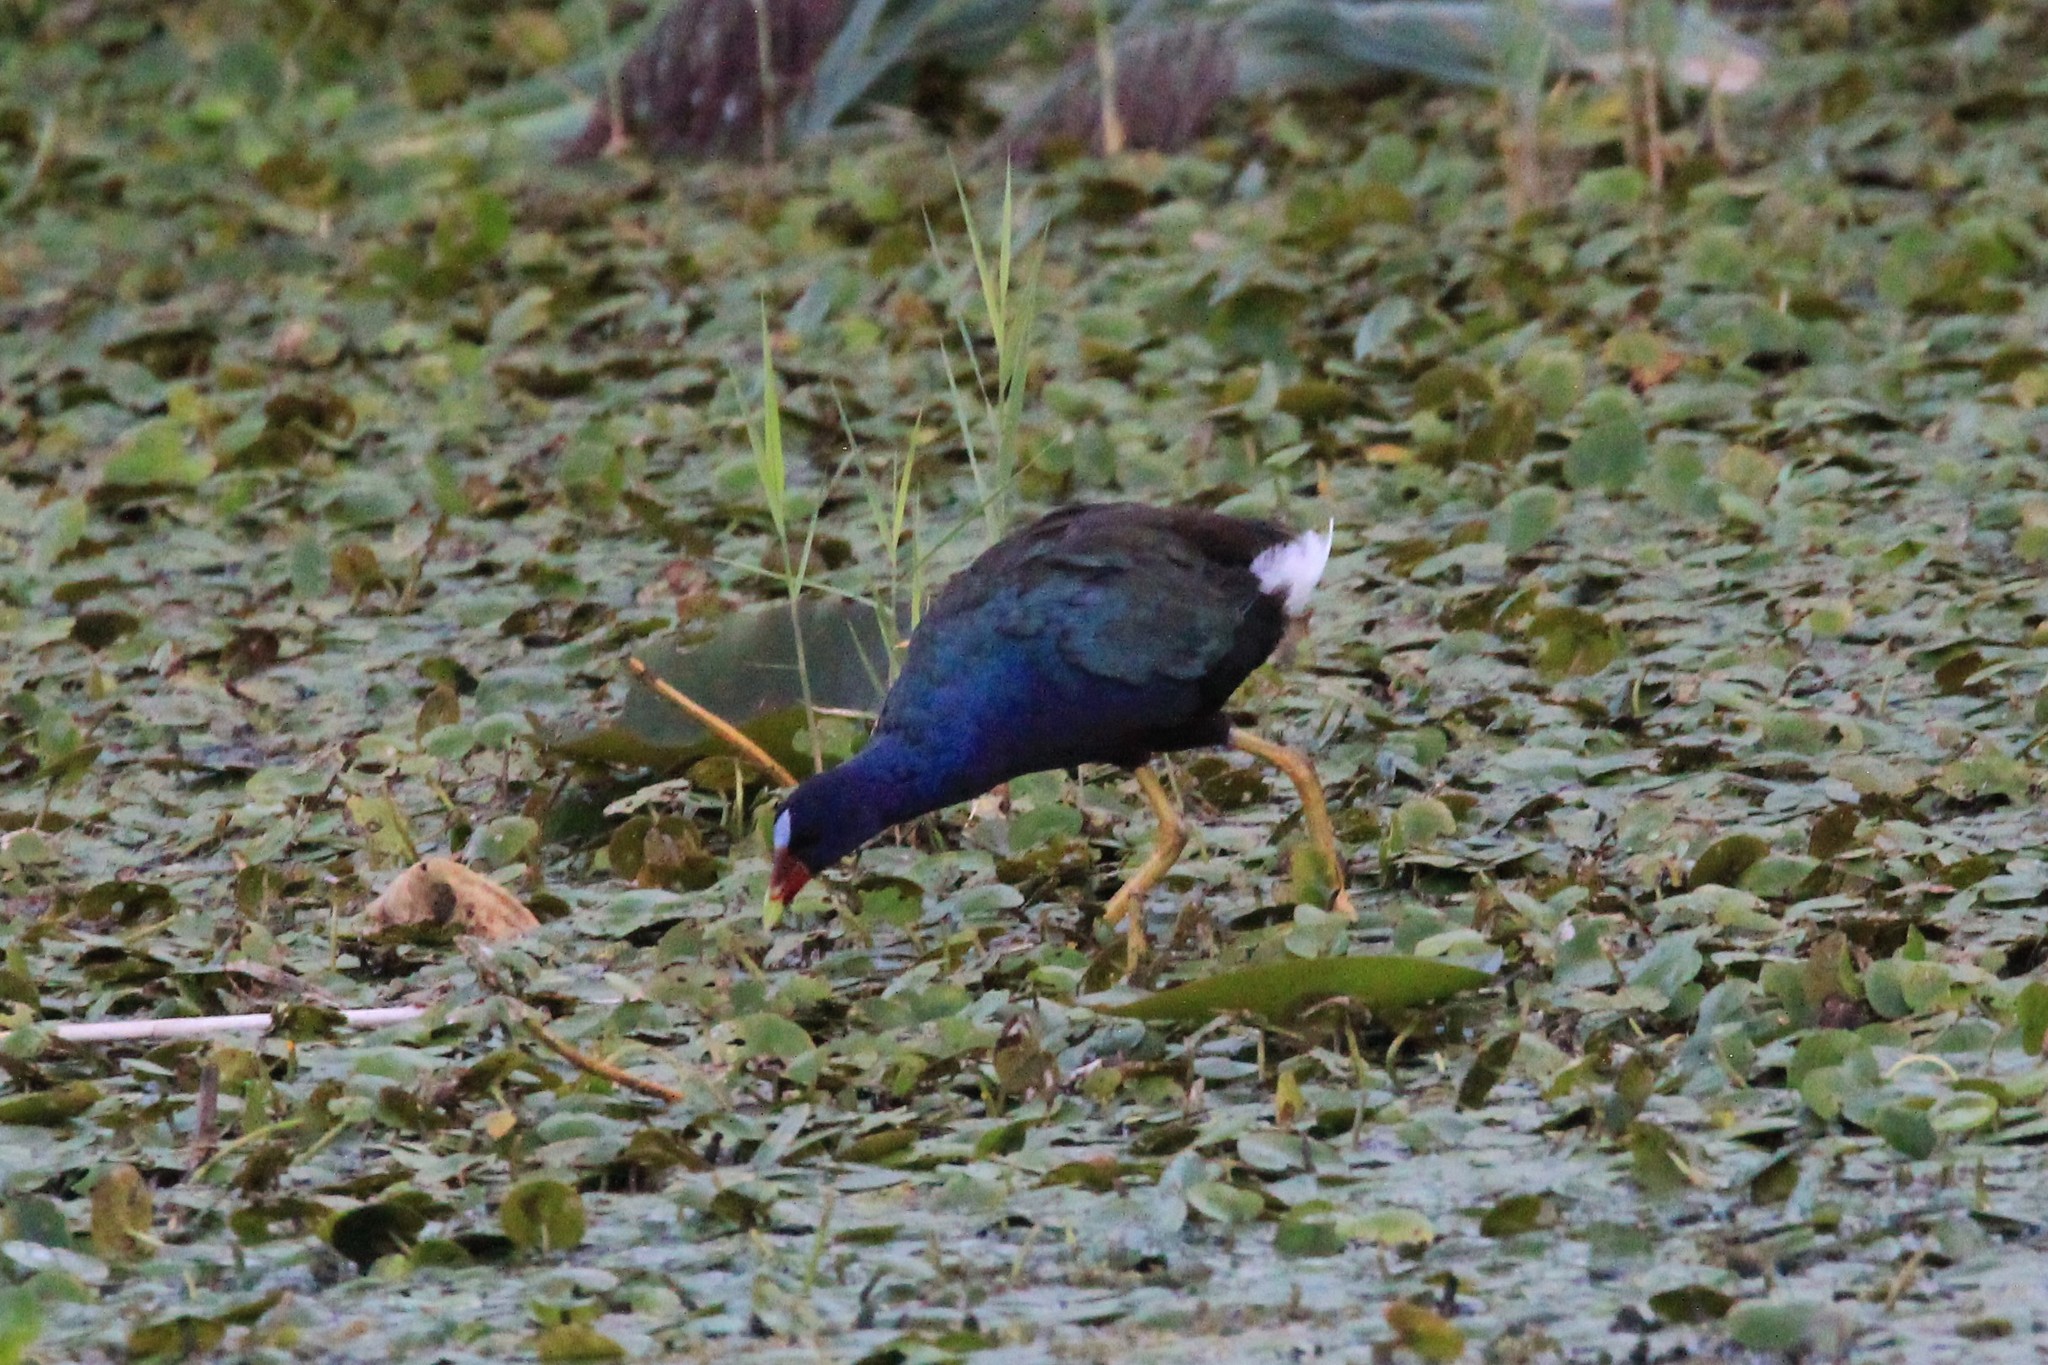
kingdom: Animalia
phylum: Chordata
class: Aves
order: Gruiformes
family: Rallidae
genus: Porphyrio
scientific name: Porphyrio martinica
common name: Purple gallinule
